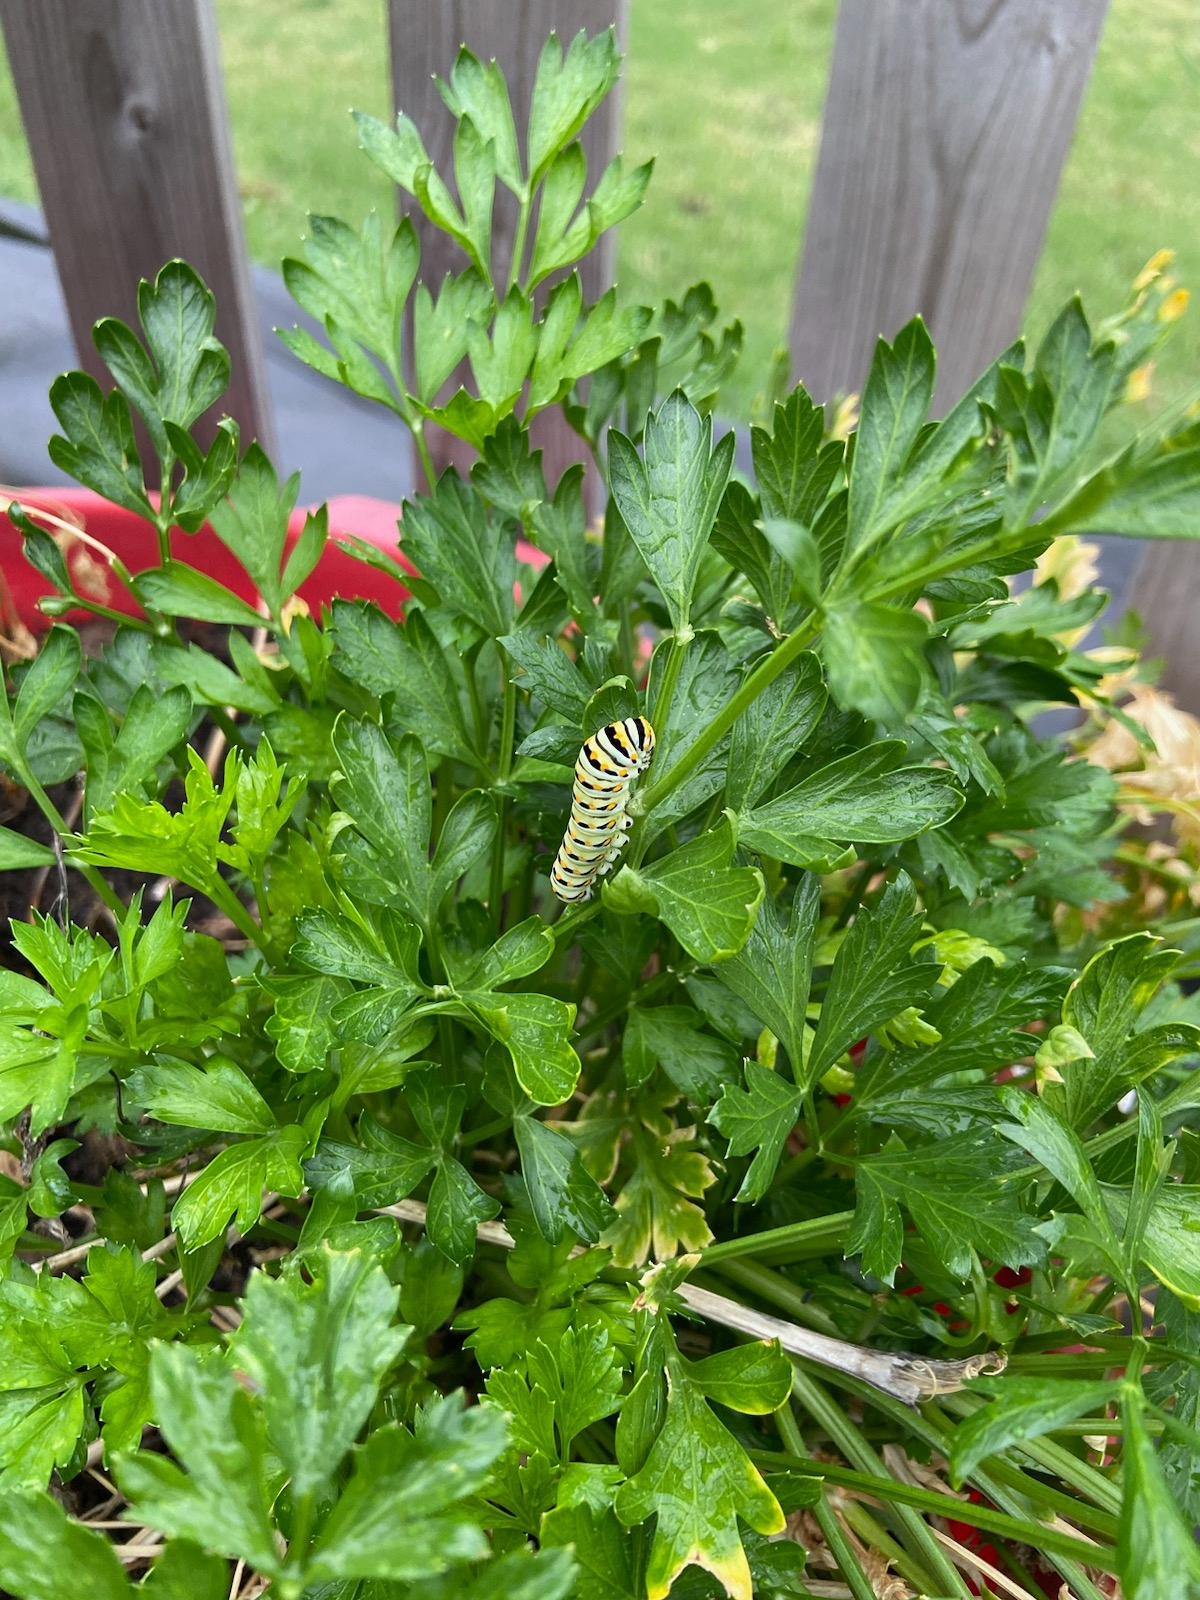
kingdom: Animalia
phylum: Arthropoda
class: Insecta
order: Lepidoptera
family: Papilionidae
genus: Papilio
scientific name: Papilio polyxenes
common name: Black swallowtail
